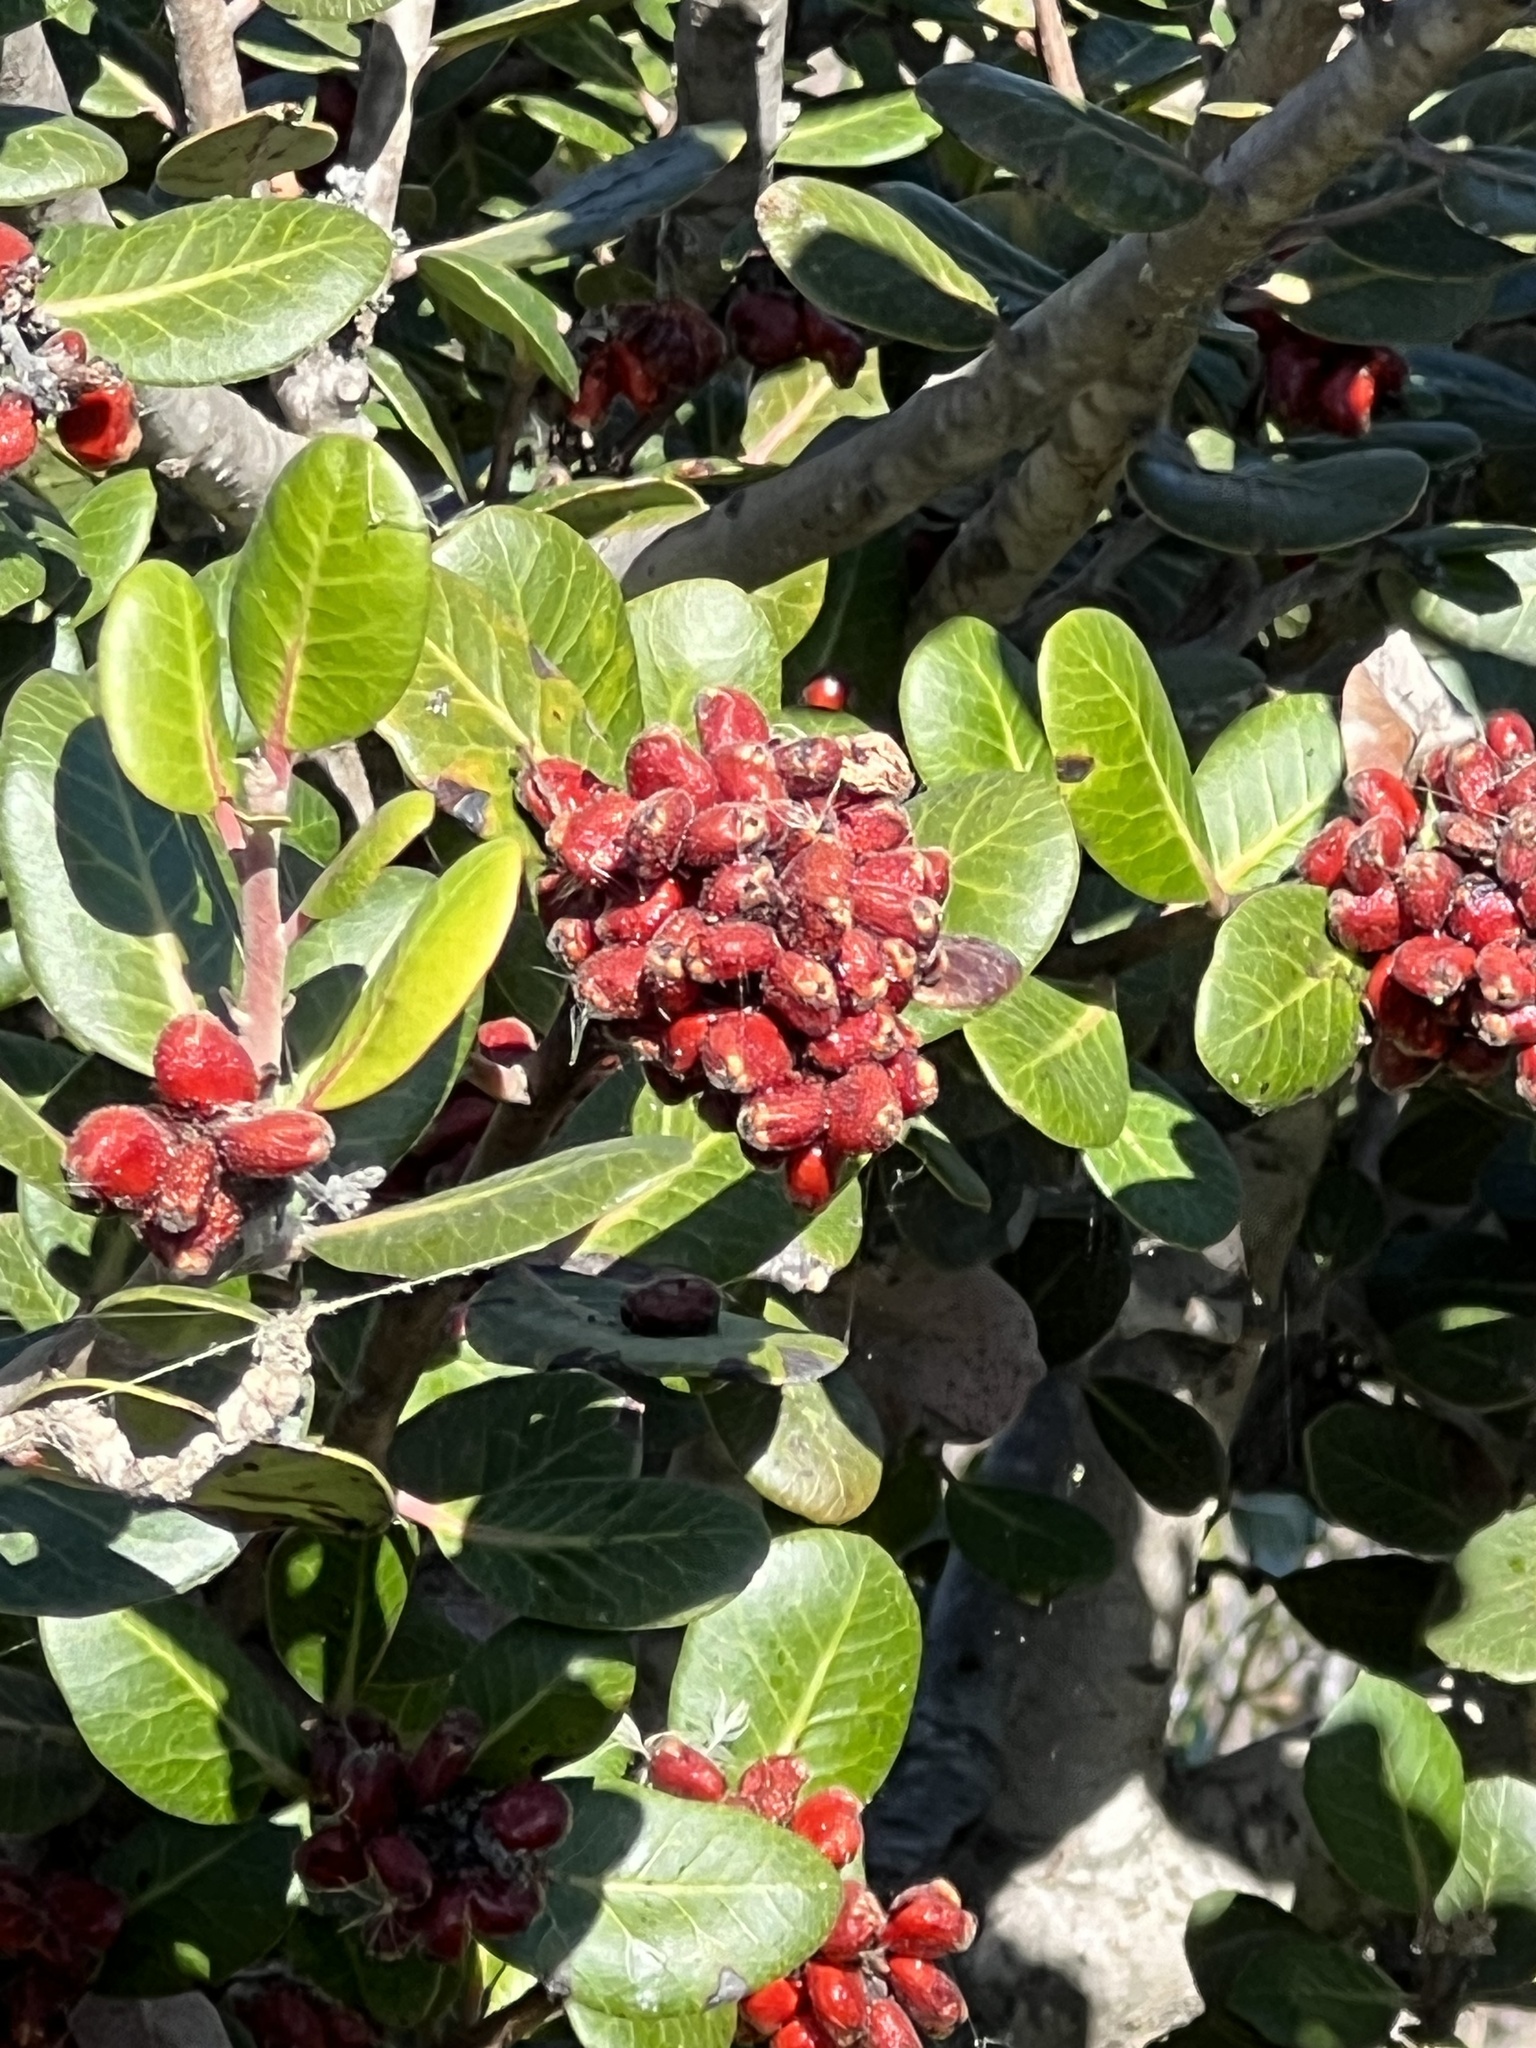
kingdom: Plantae
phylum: Tracheophyta
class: Magnoliopsida
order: Sapindales
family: Anacardiaceae
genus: Rhus
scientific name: Rhus integrifolia
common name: Lemonade sumac
